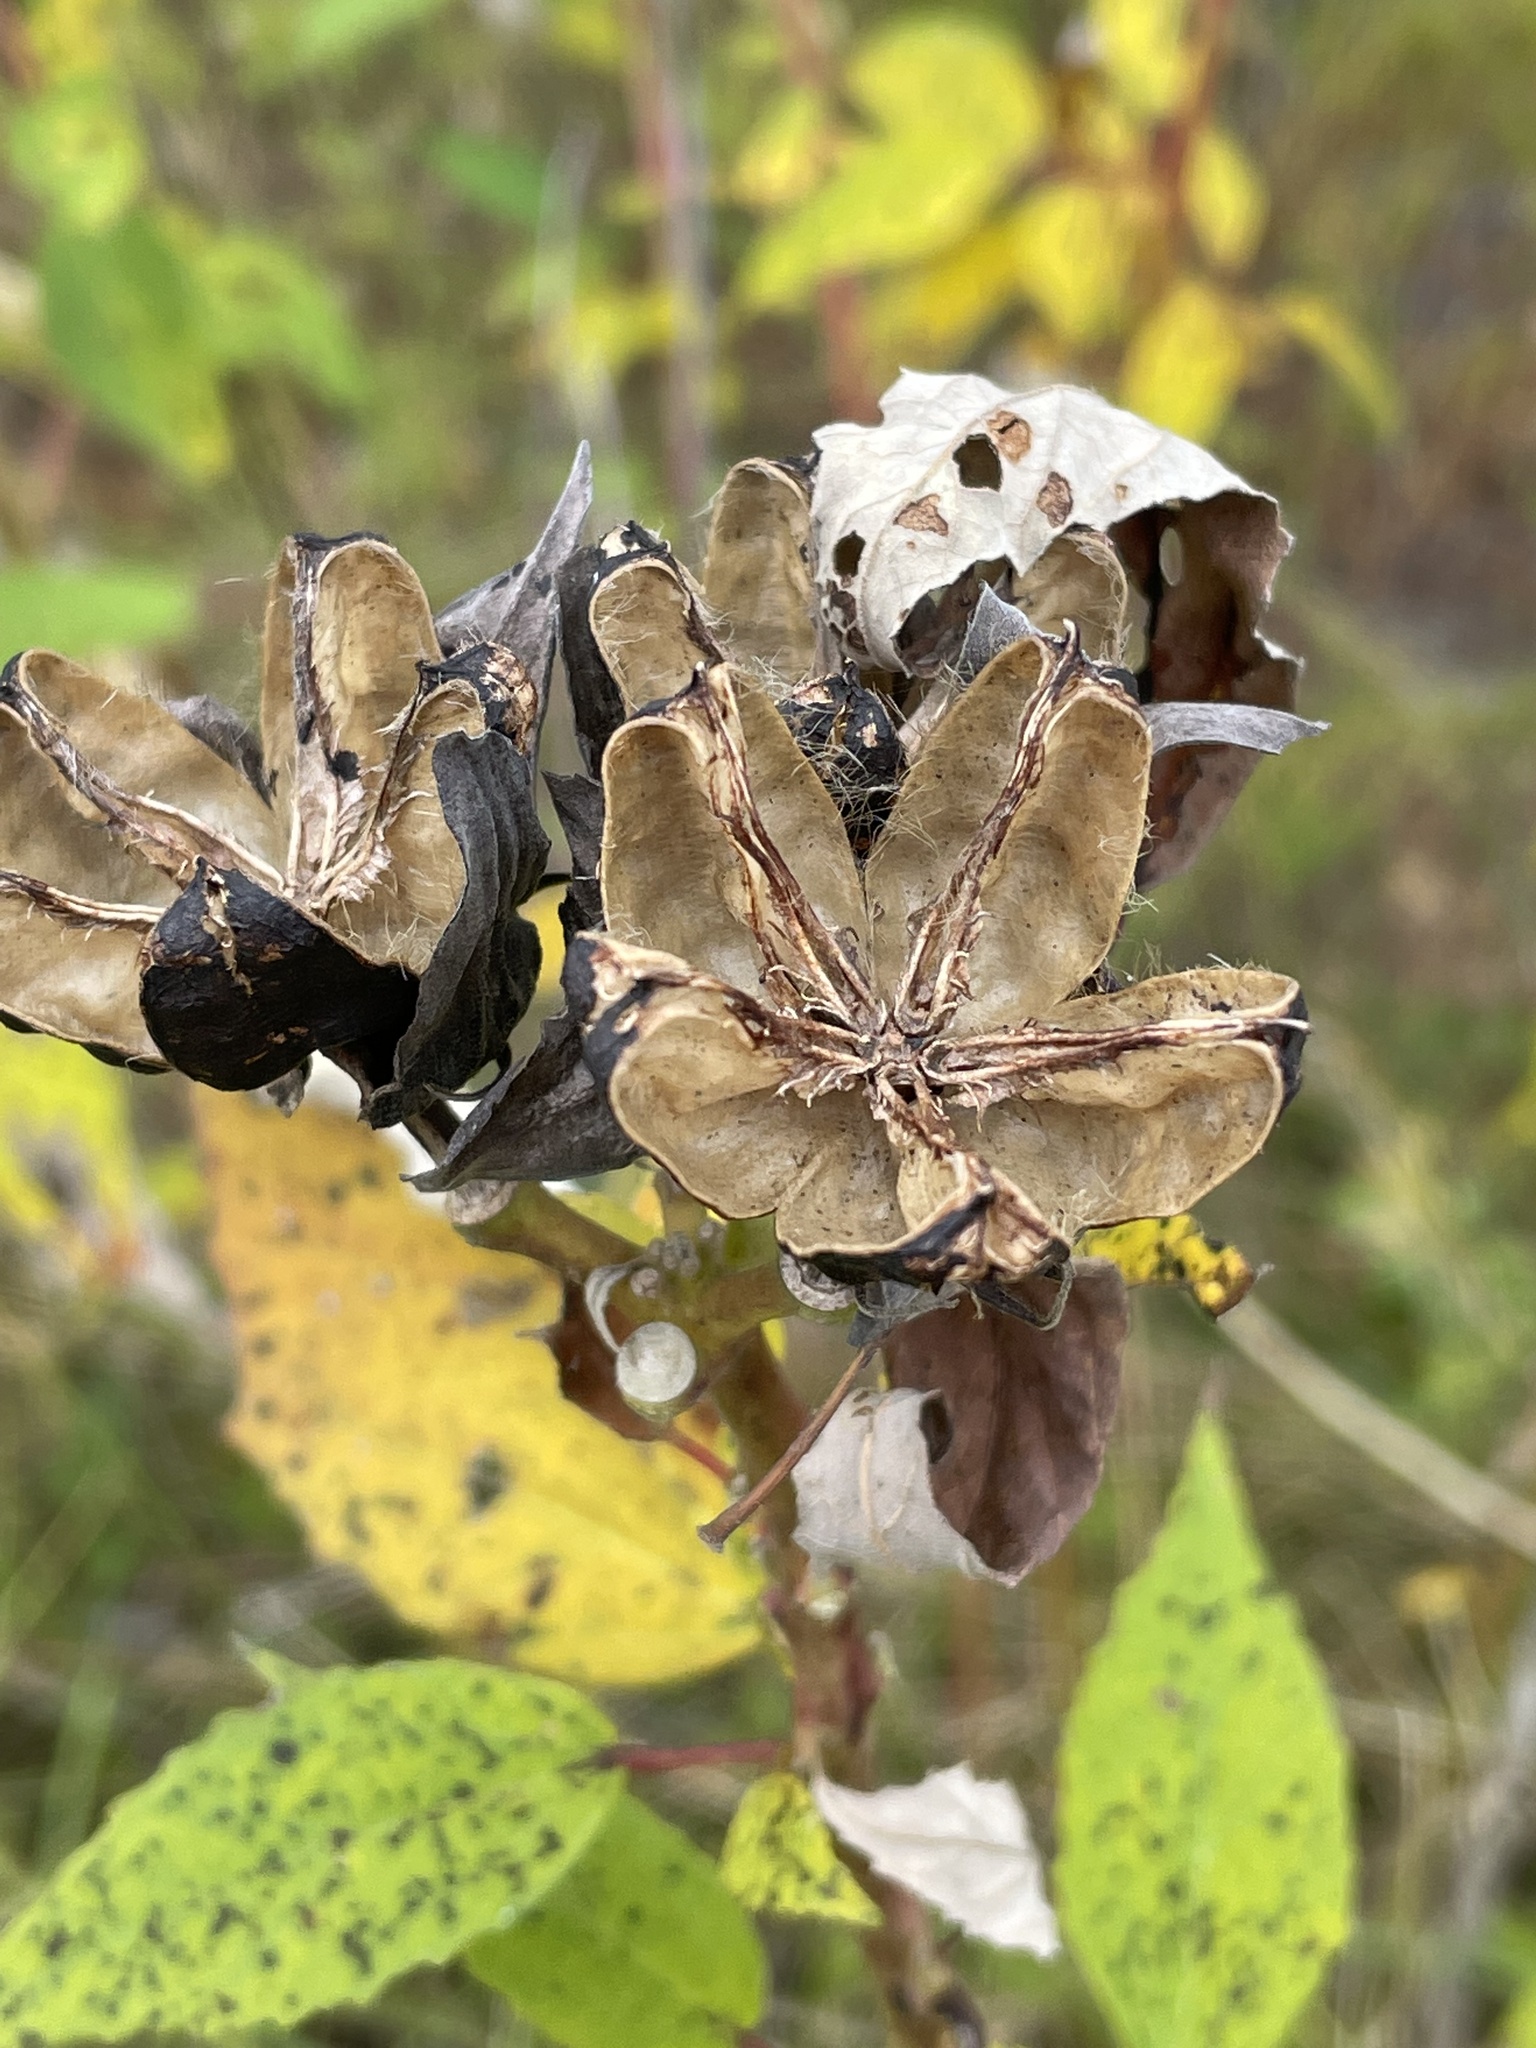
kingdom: Plantae
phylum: Tracheophyta
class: Magnoliopsida
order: Malvales
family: Malvaceae
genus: Hibiscus
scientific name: Hibiscus moscheutos
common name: Common rose-mallow
